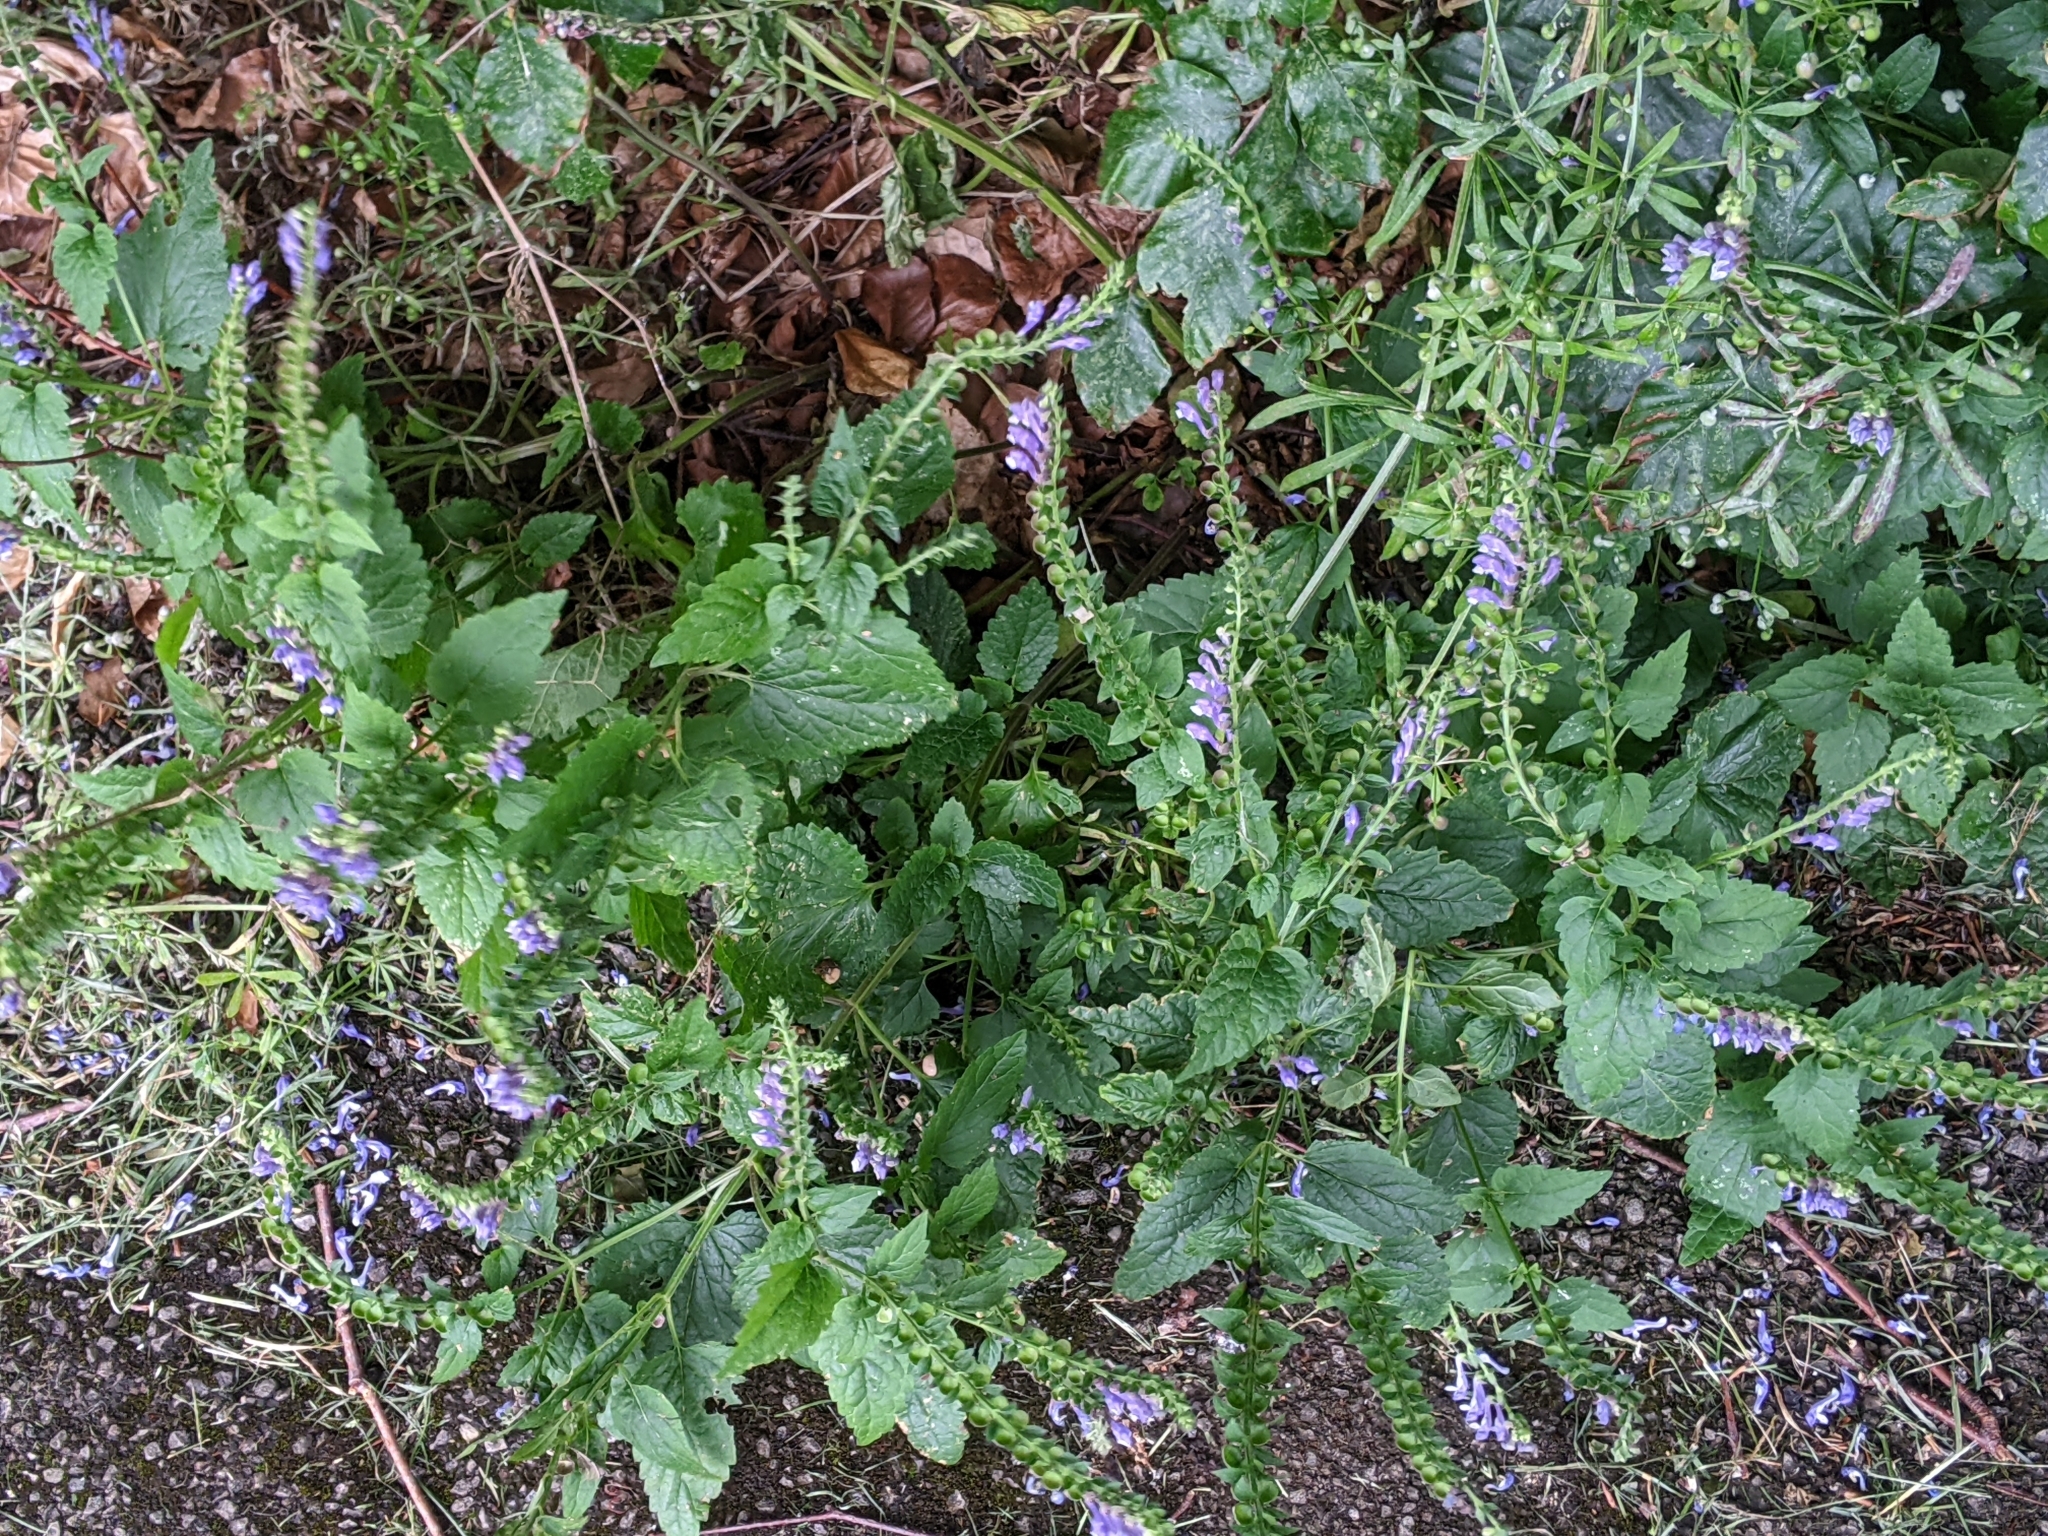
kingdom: Plantae
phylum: Tracheophyta
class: Magnoliopsida
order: Lamiales
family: Lamiaceae
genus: Scutellaria
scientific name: Scutellaria altissima
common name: Somerset skullcap
